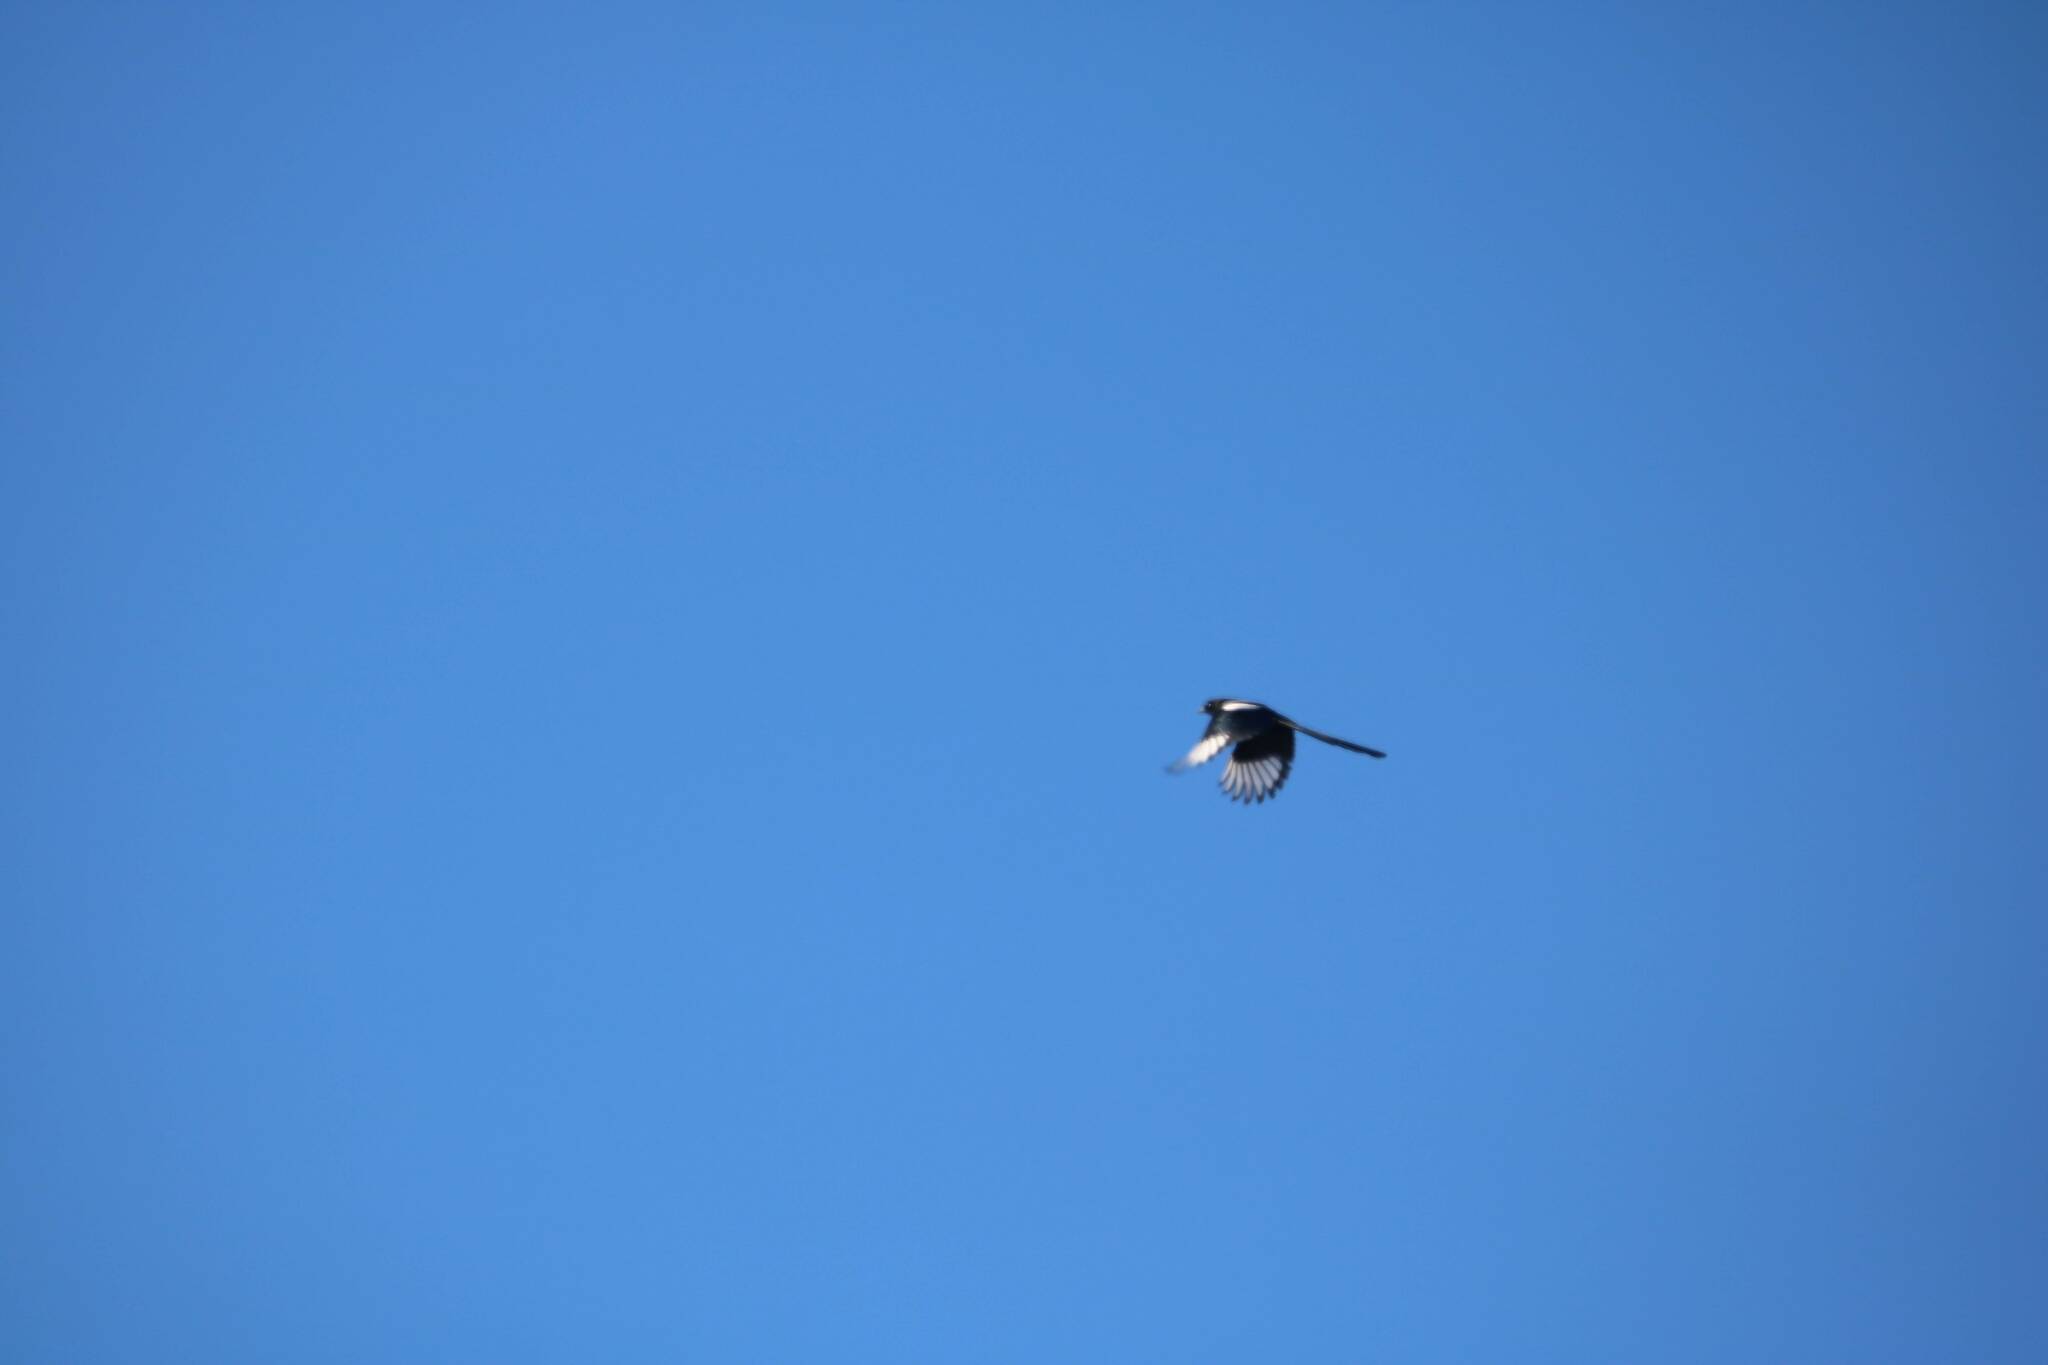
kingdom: Animalia
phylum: Chordata
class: Aves
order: Passeriformes
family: Corvidae
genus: Pica
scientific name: Pica mauritanica
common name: Maghreb magpie
